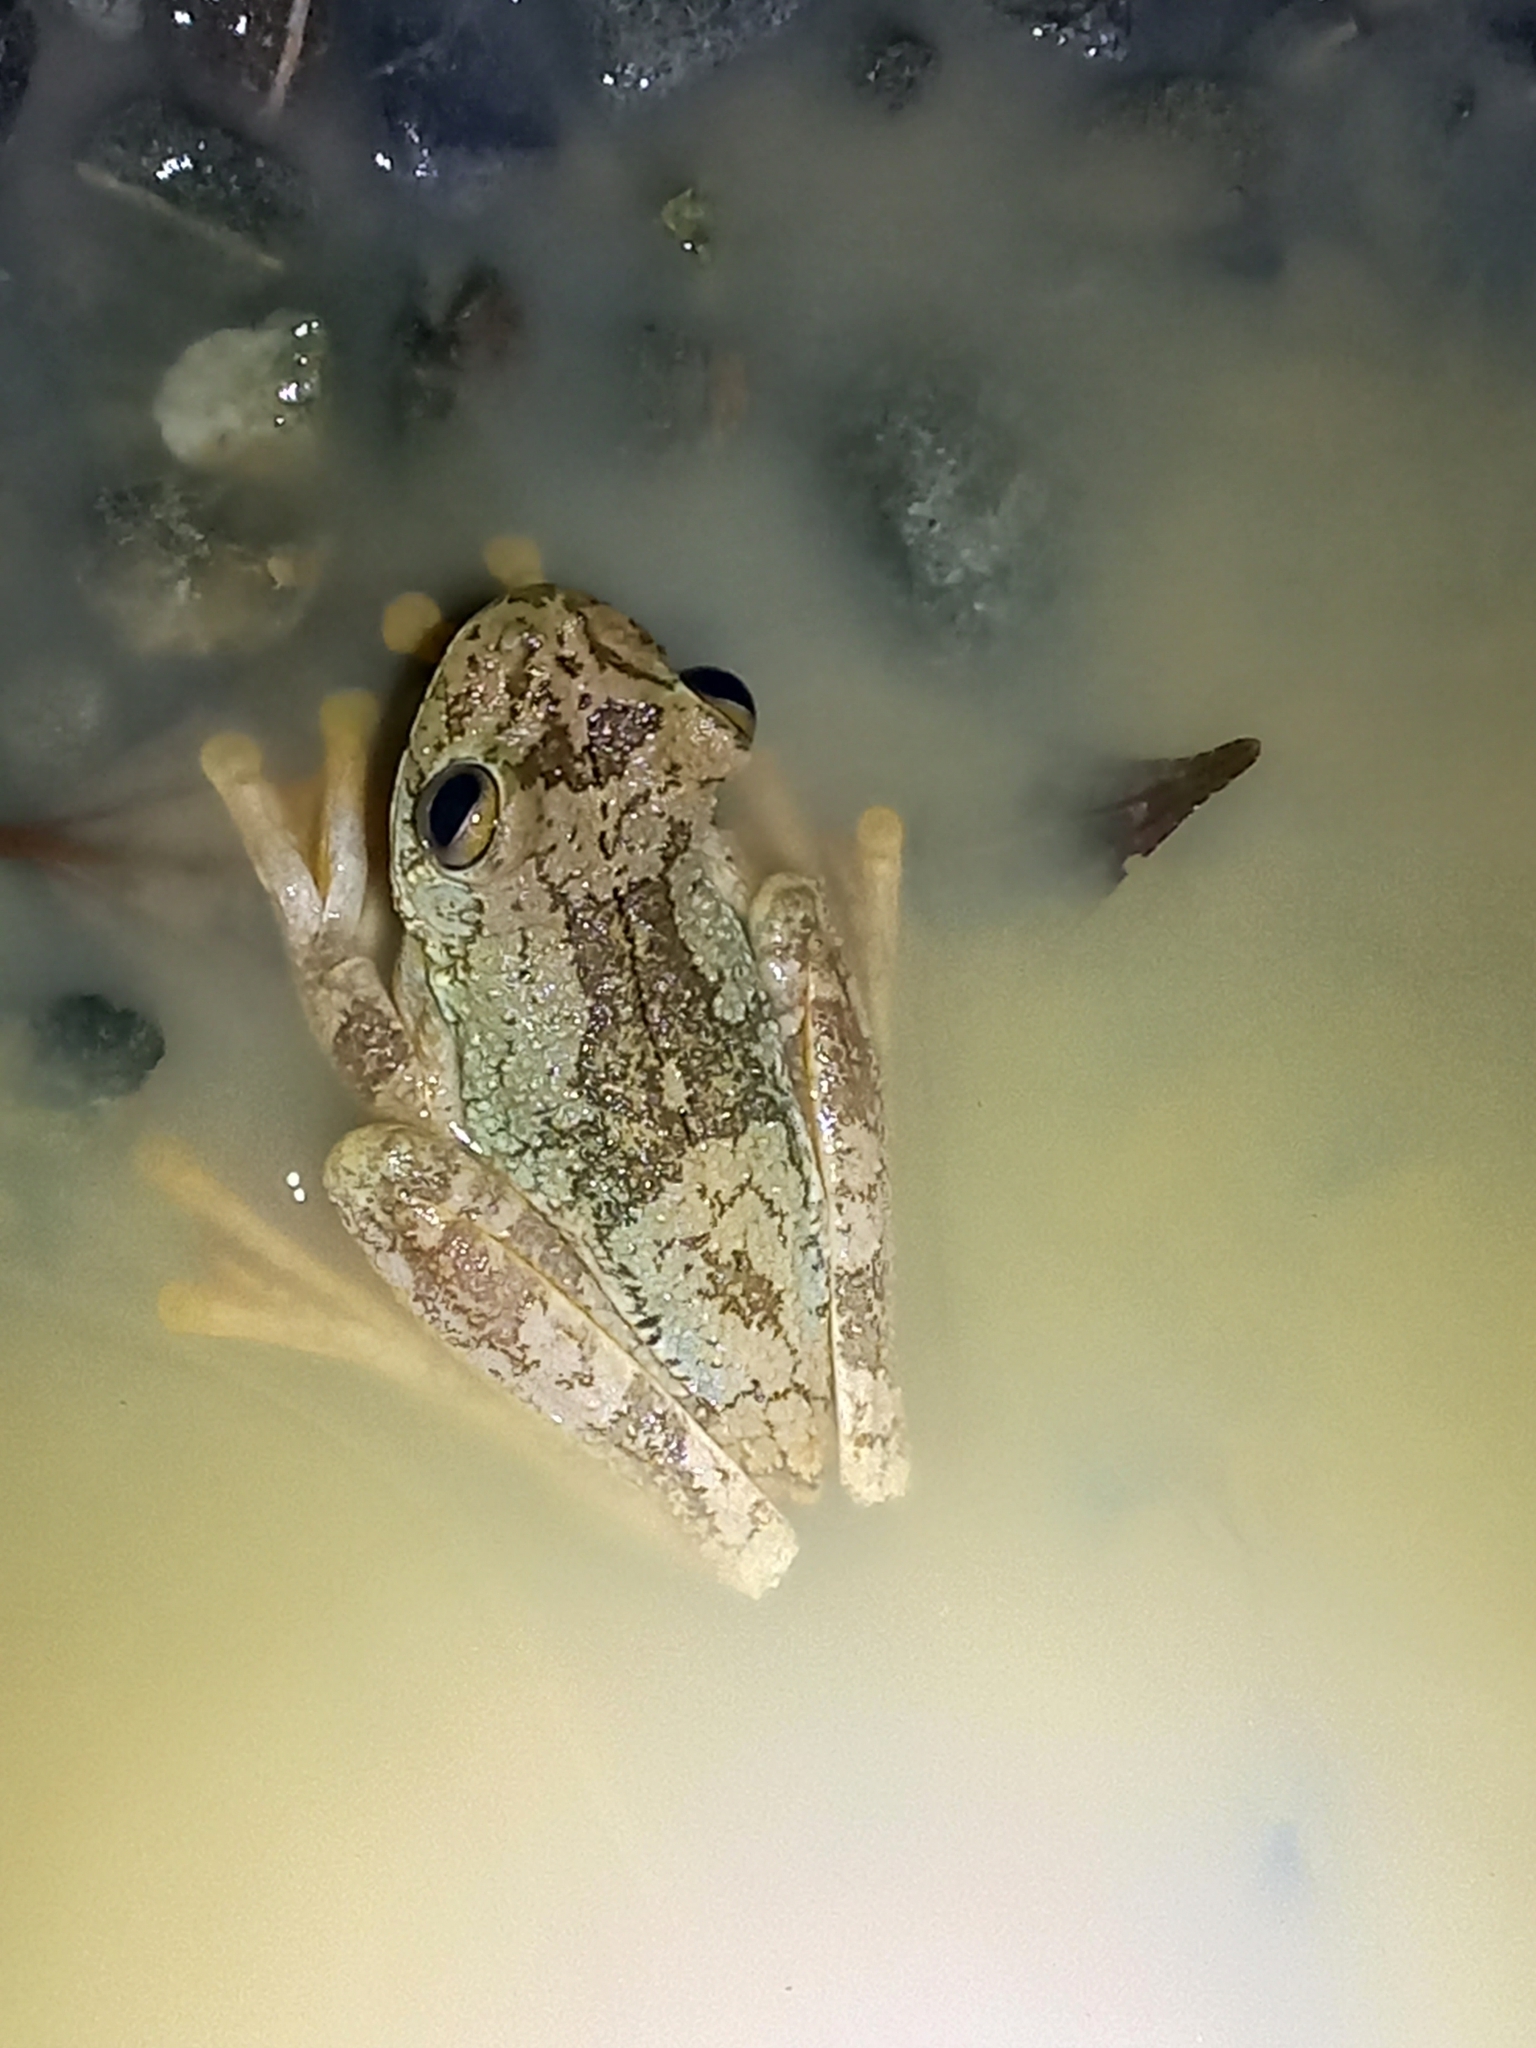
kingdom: Animalia
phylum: Chordata
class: Amphibia
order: Anura
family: Hylidae
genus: Boana
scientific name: Boana rosenbergi
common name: Rosenberg´s gladiator treefrog
